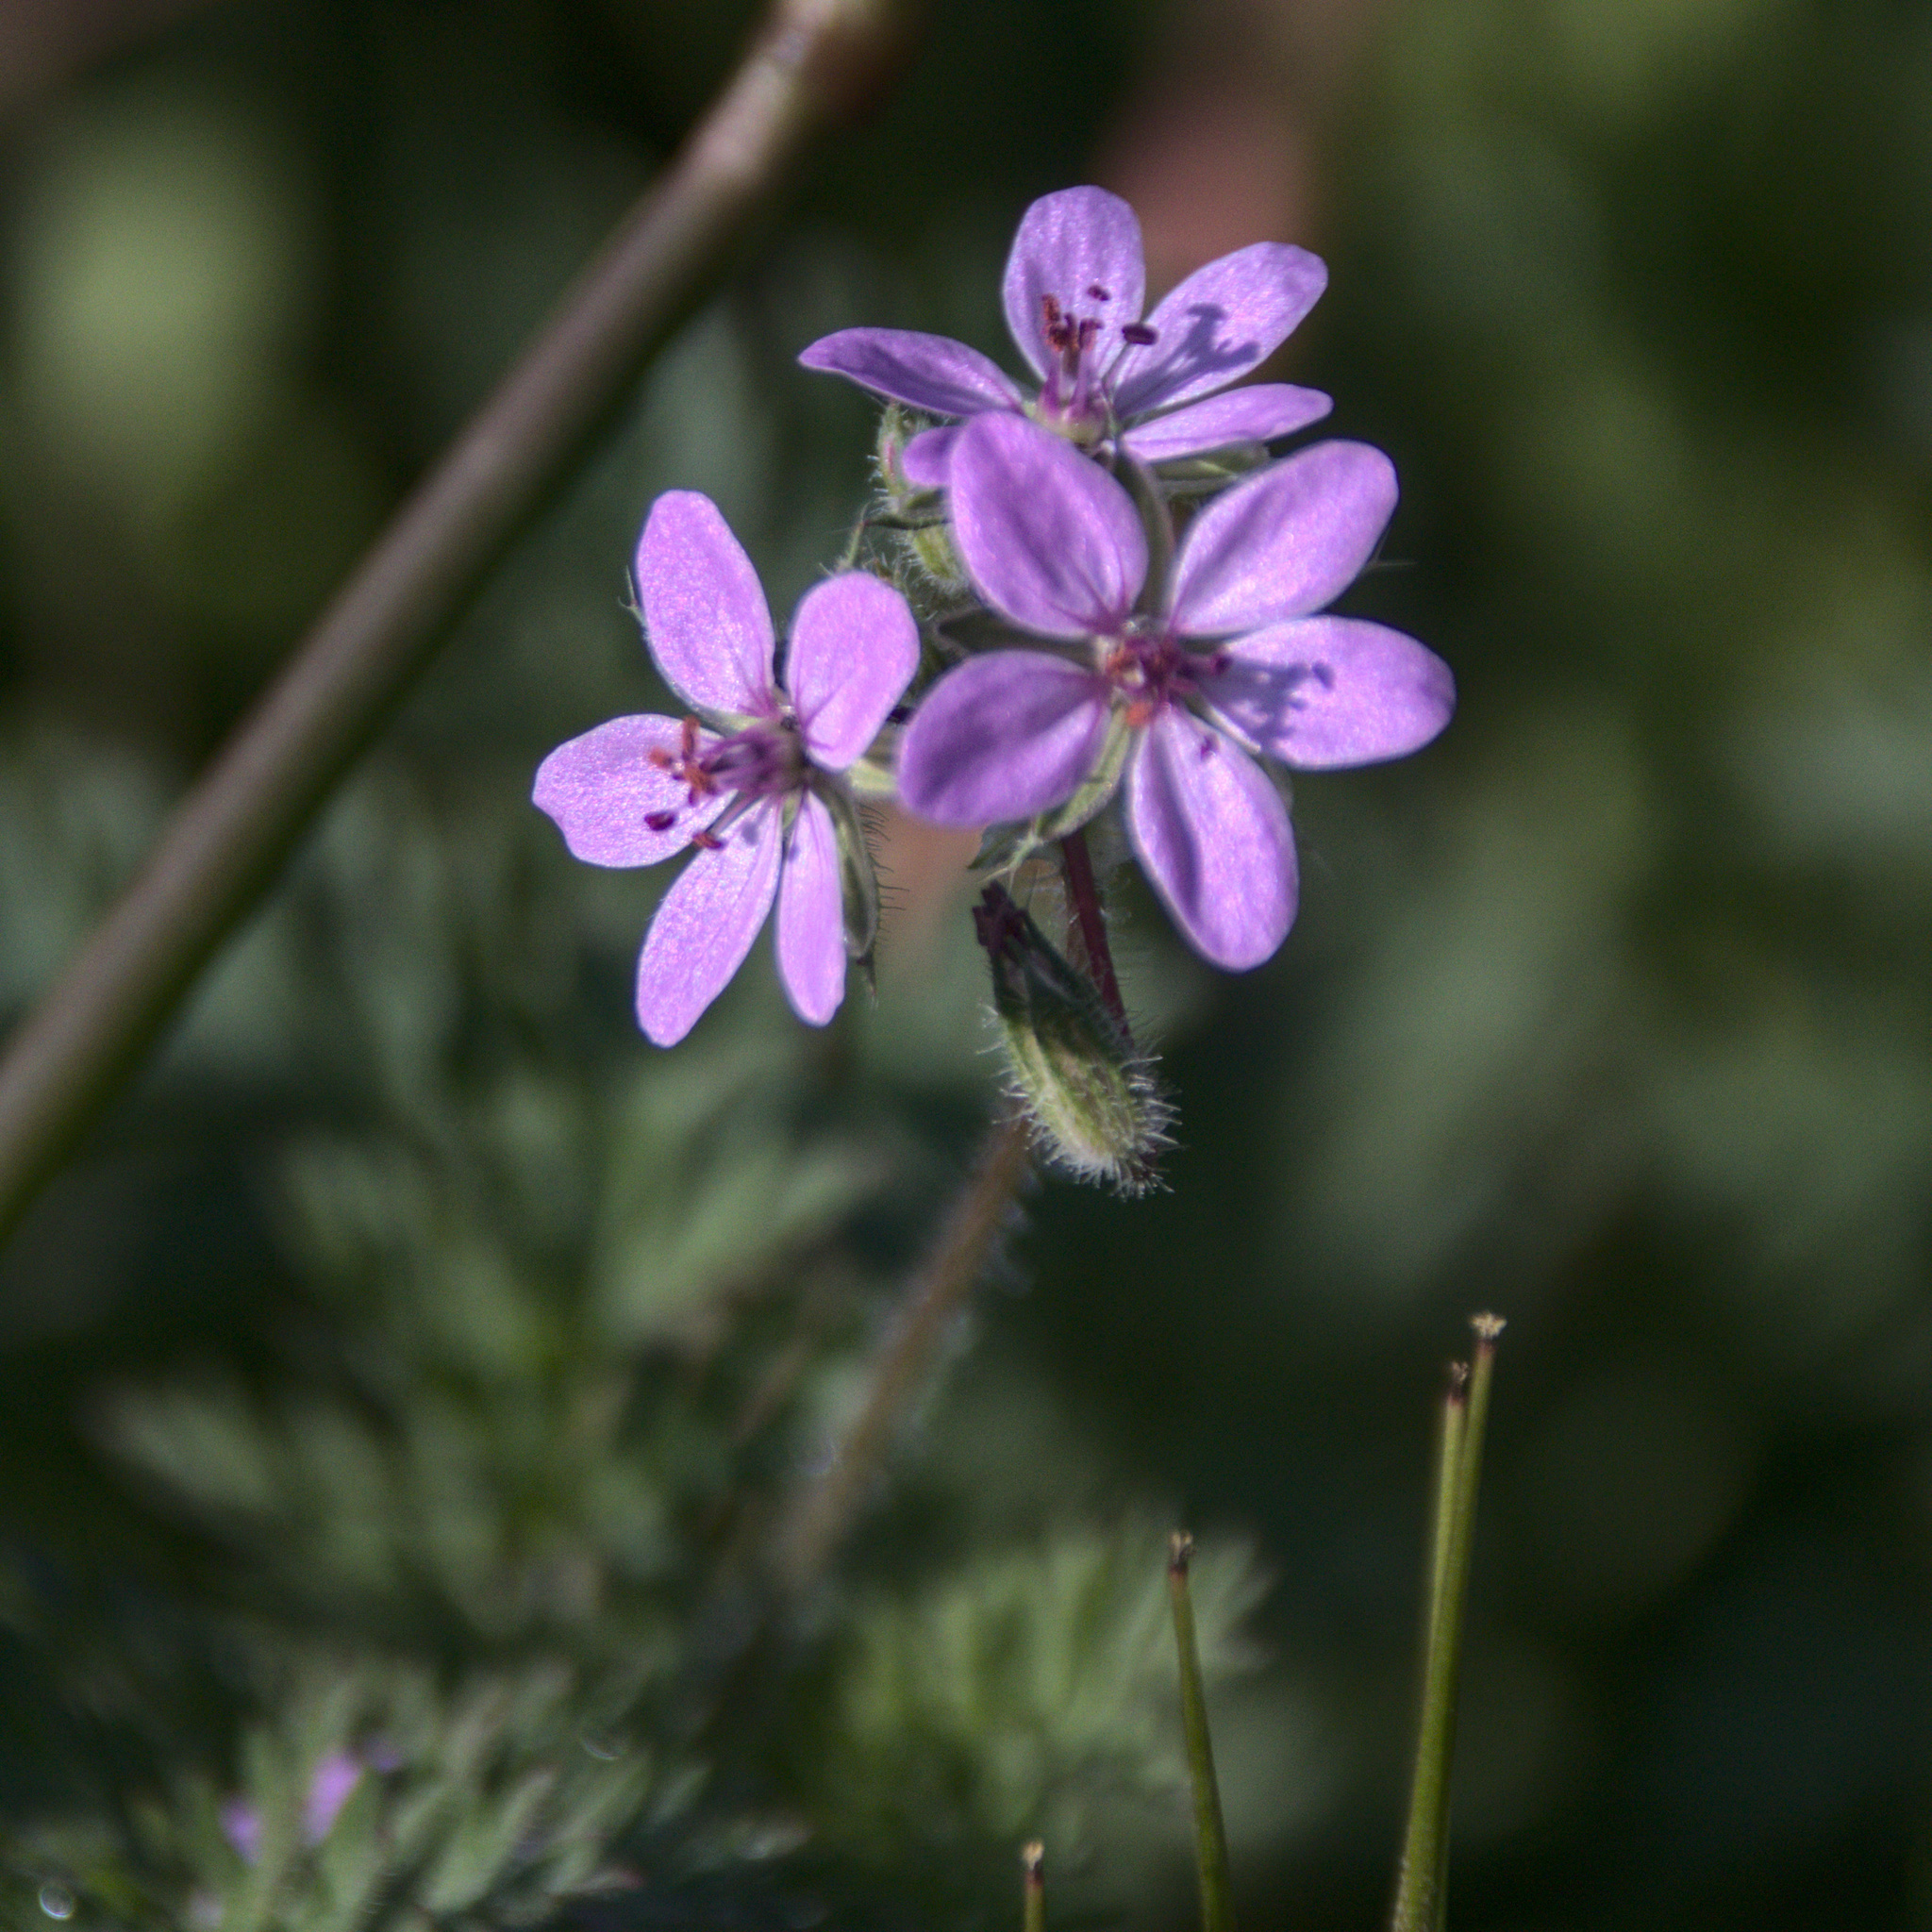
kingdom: Plantae
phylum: Tracheophyta
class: Magnoliopsida
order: Geraniales
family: Geraniaceae
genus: Erodium
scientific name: Erodium cicutarium
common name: Common stork's-bill
